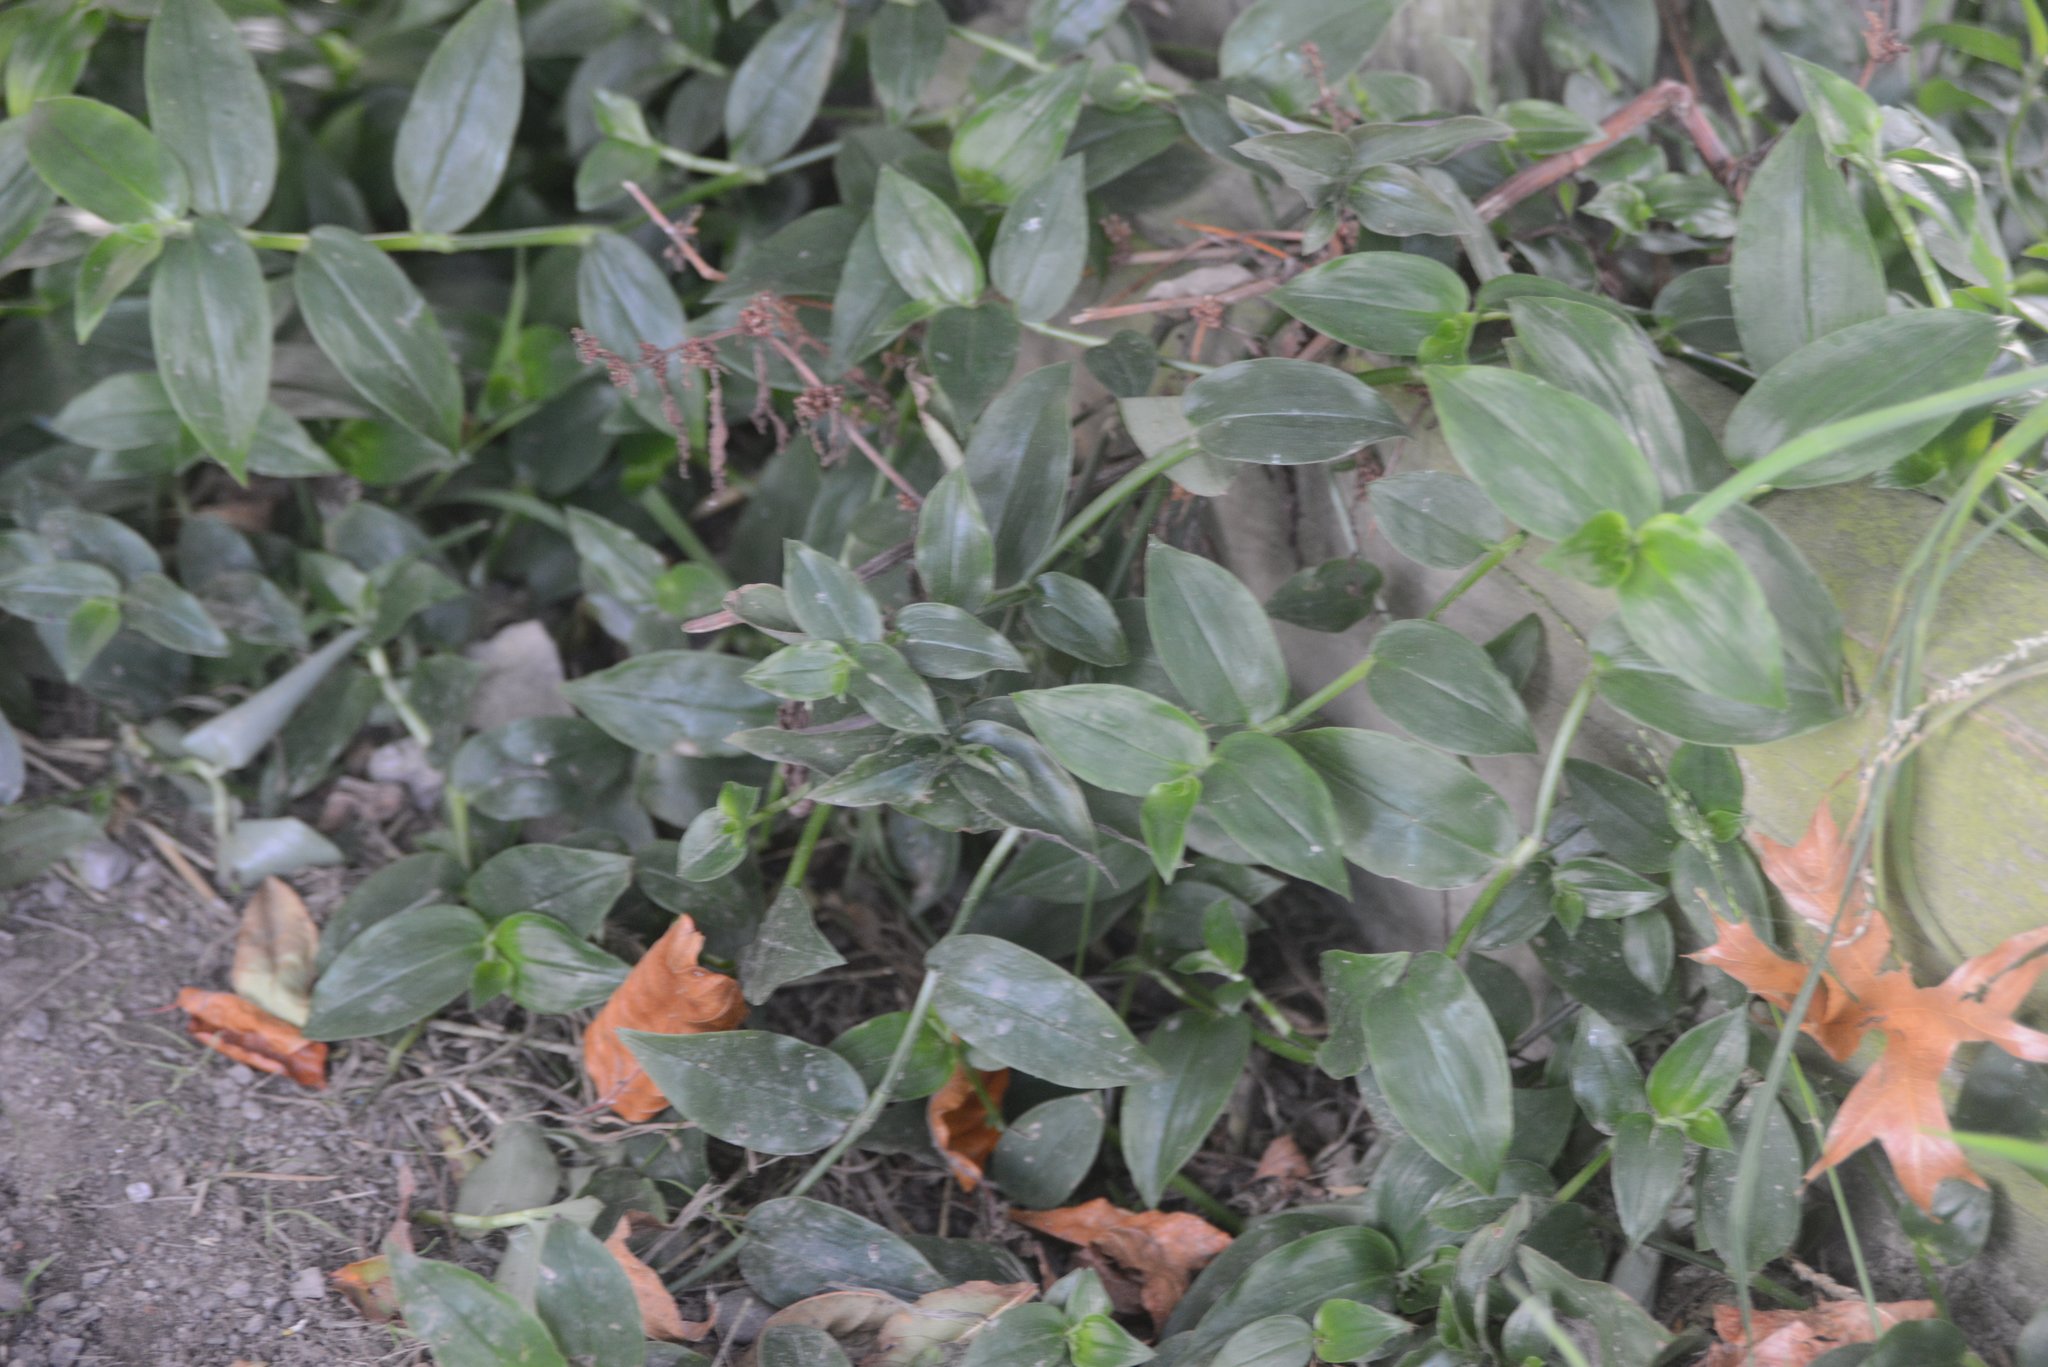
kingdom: Plantae
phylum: Tracheophyta
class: Liliopsida
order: Commelinales
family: Commelinaceae
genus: Tradescantia
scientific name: Tradescantia fluminensis
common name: Wandering-jew
